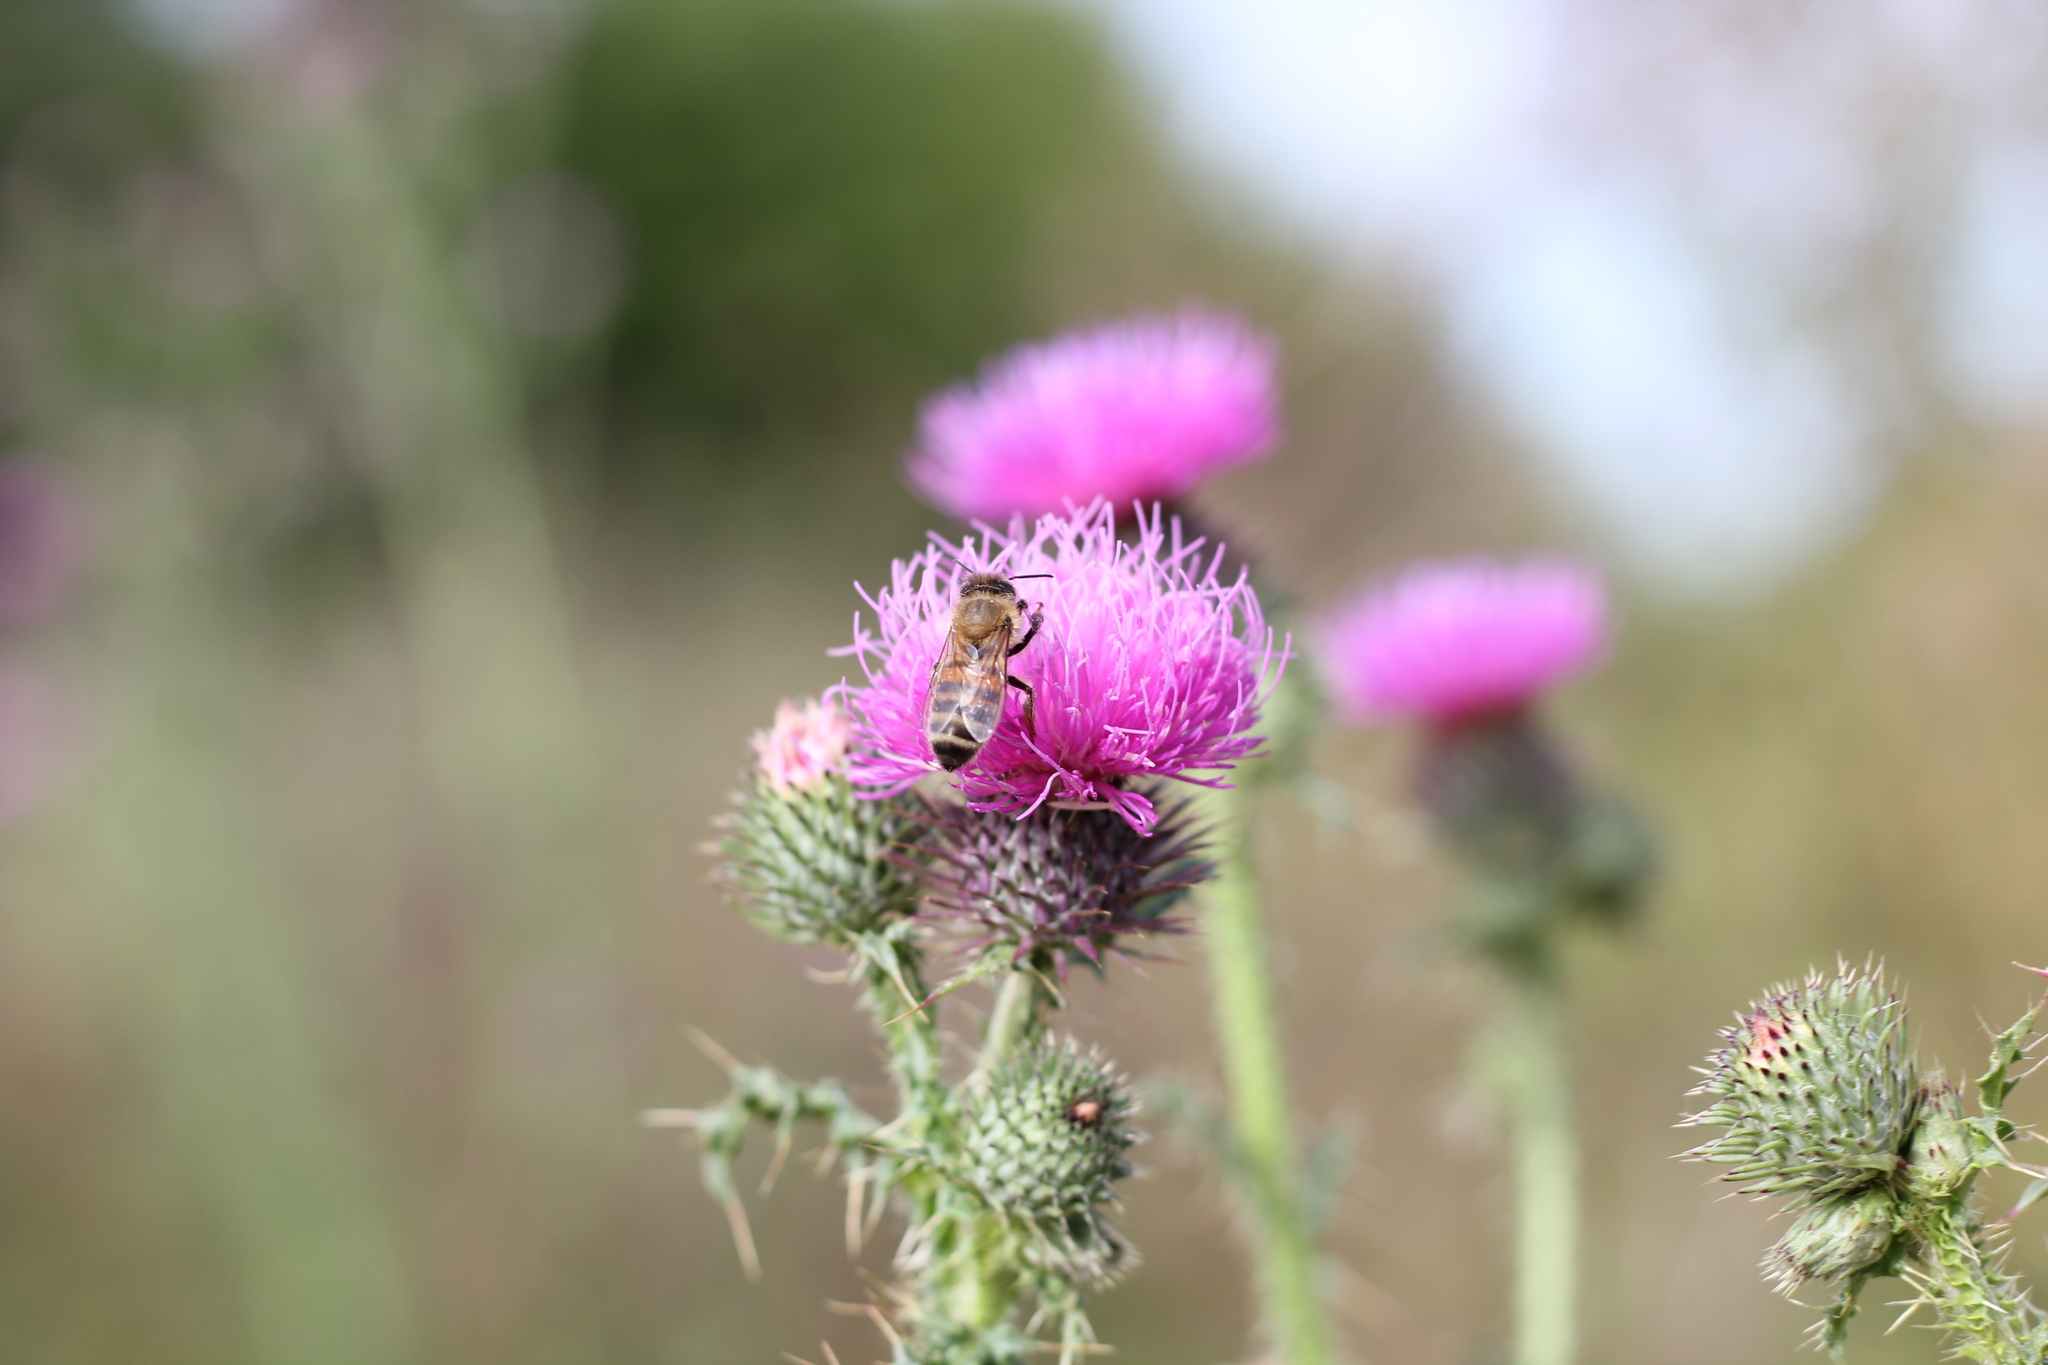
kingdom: Animalia
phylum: Arthropoda
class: Insecta
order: Hymenoptera
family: Apidae
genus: Apis
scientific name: Apis mellifera
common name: Honey bee
